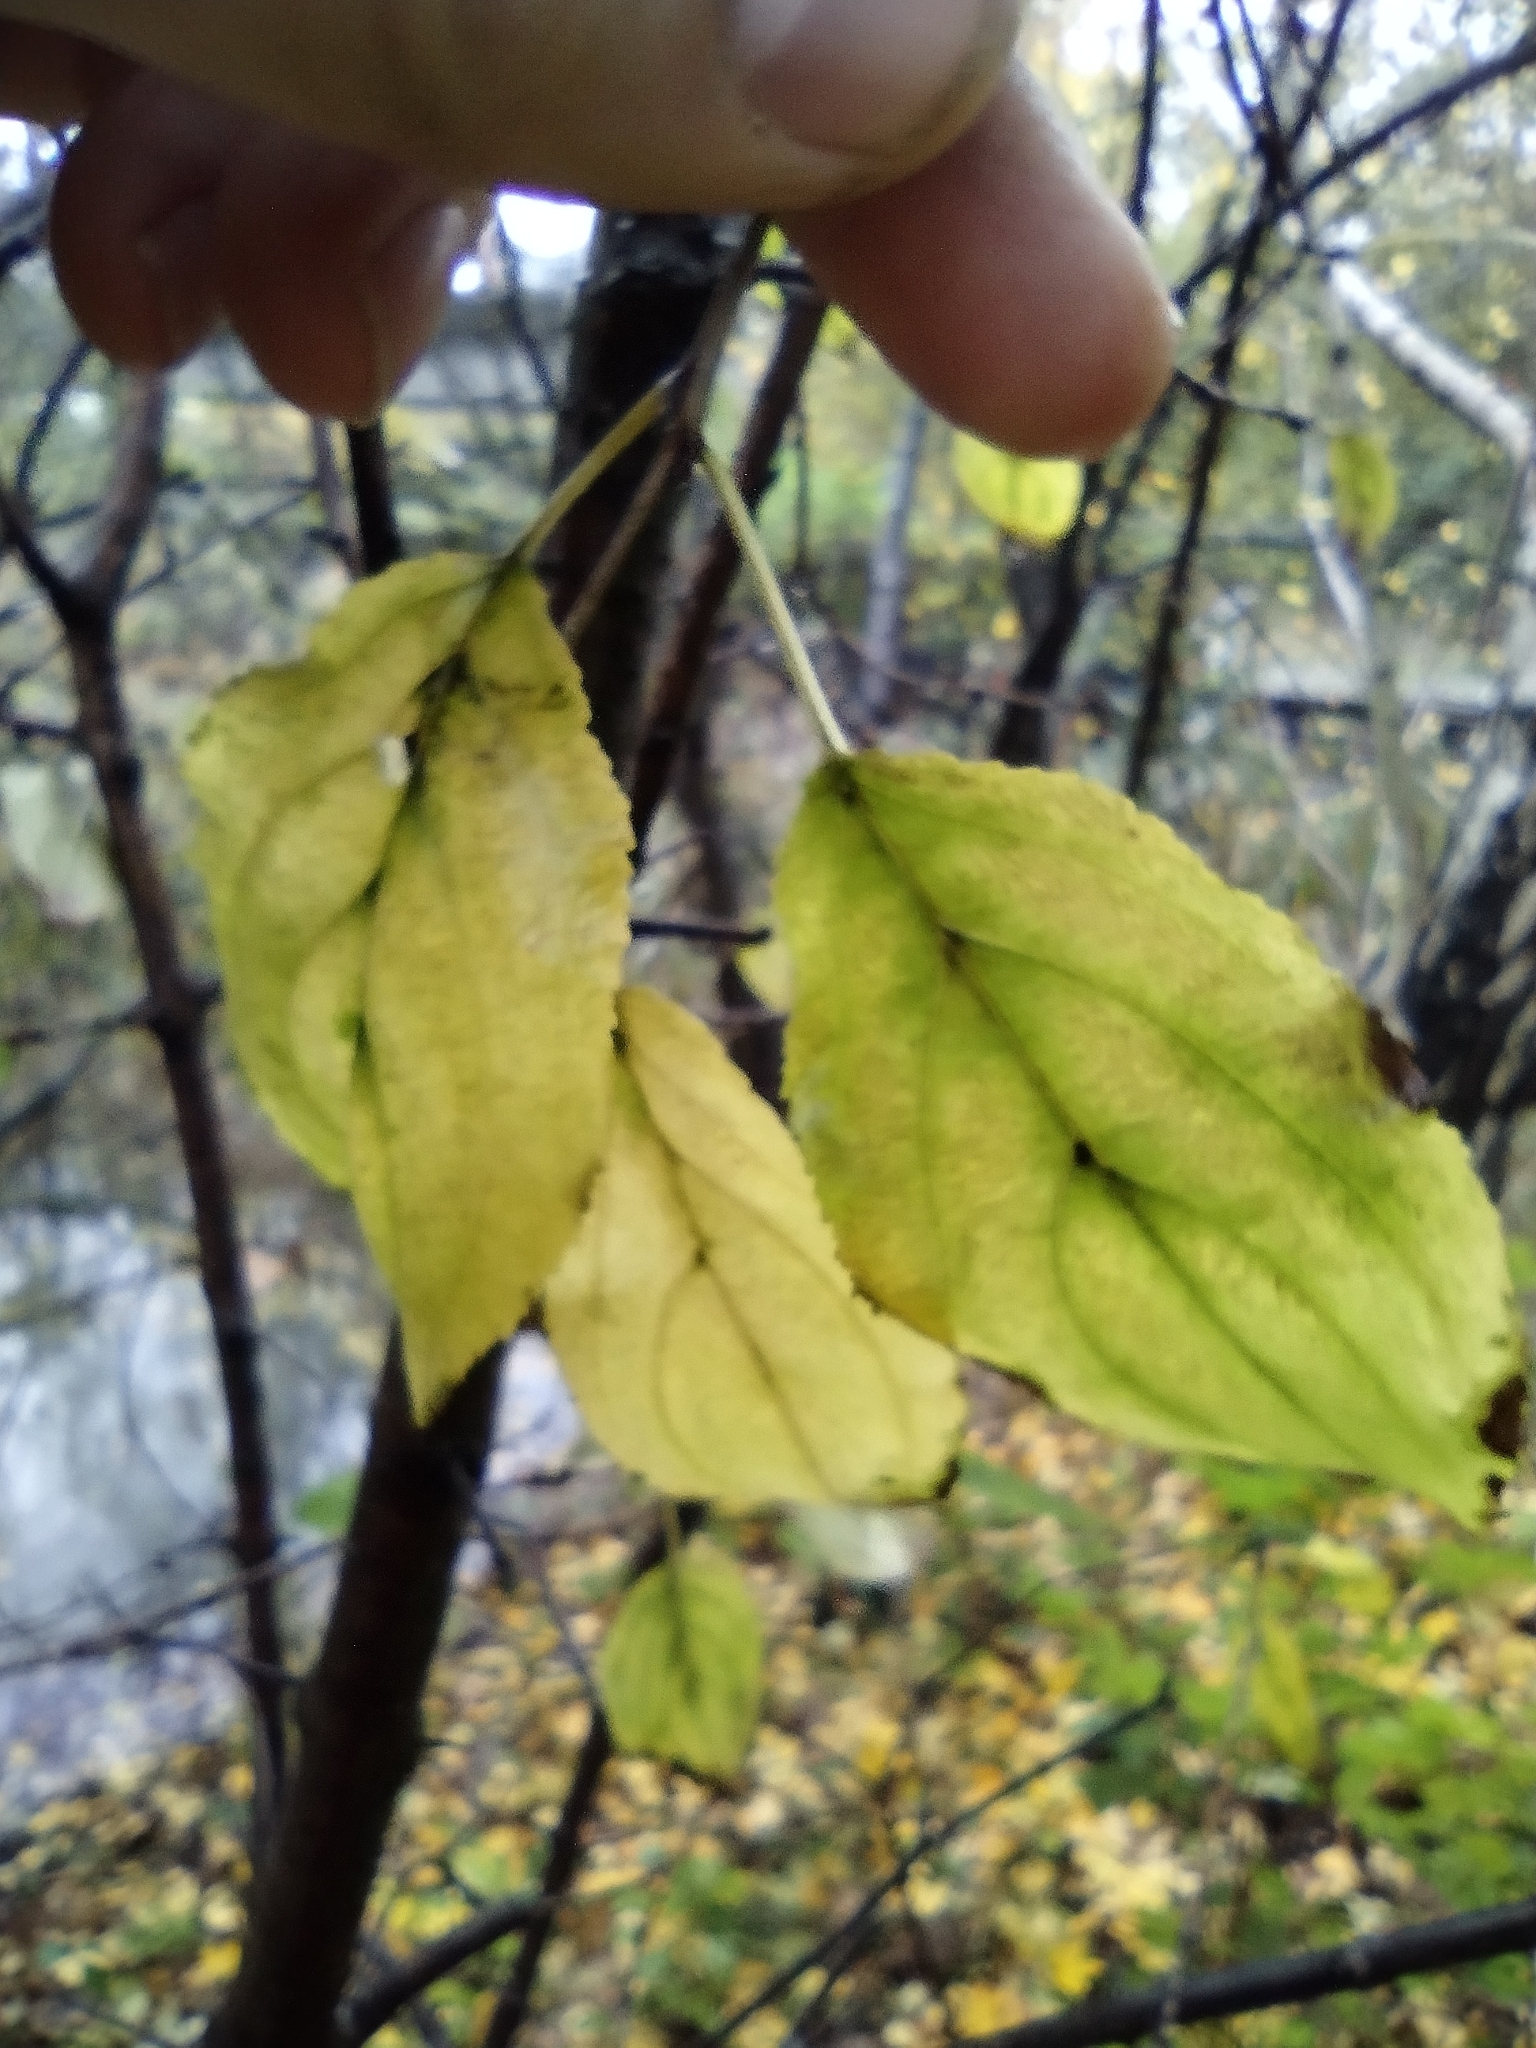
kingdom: Plantae
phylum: Tracheophyta
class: Magnoliopsida
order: Rosales
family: Rhamnaceae
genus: Rhamnus
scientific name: Rhamnus cathartica
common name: Common buckthorn
